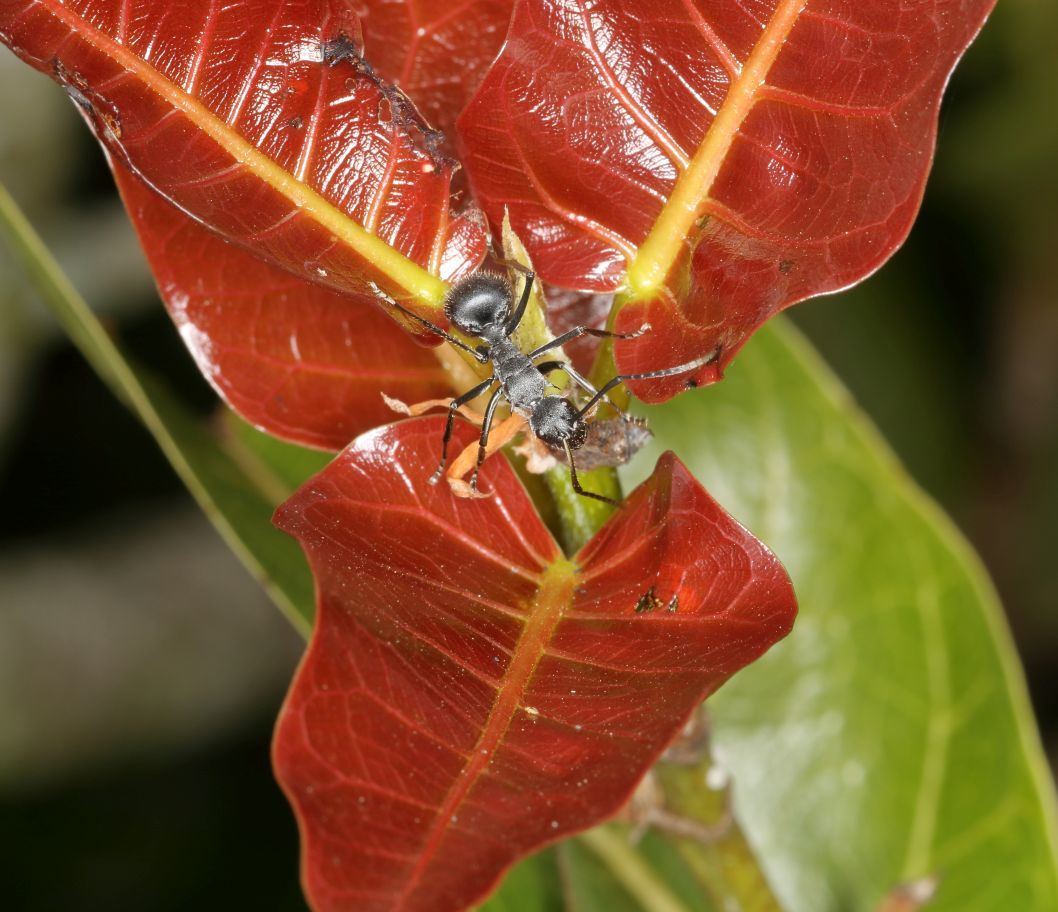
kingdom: Plantae
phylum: Tracheophyta
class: Magnoliopsida
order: Rosales
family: Moraceae
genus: Ficus
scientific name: Ficus ingens
